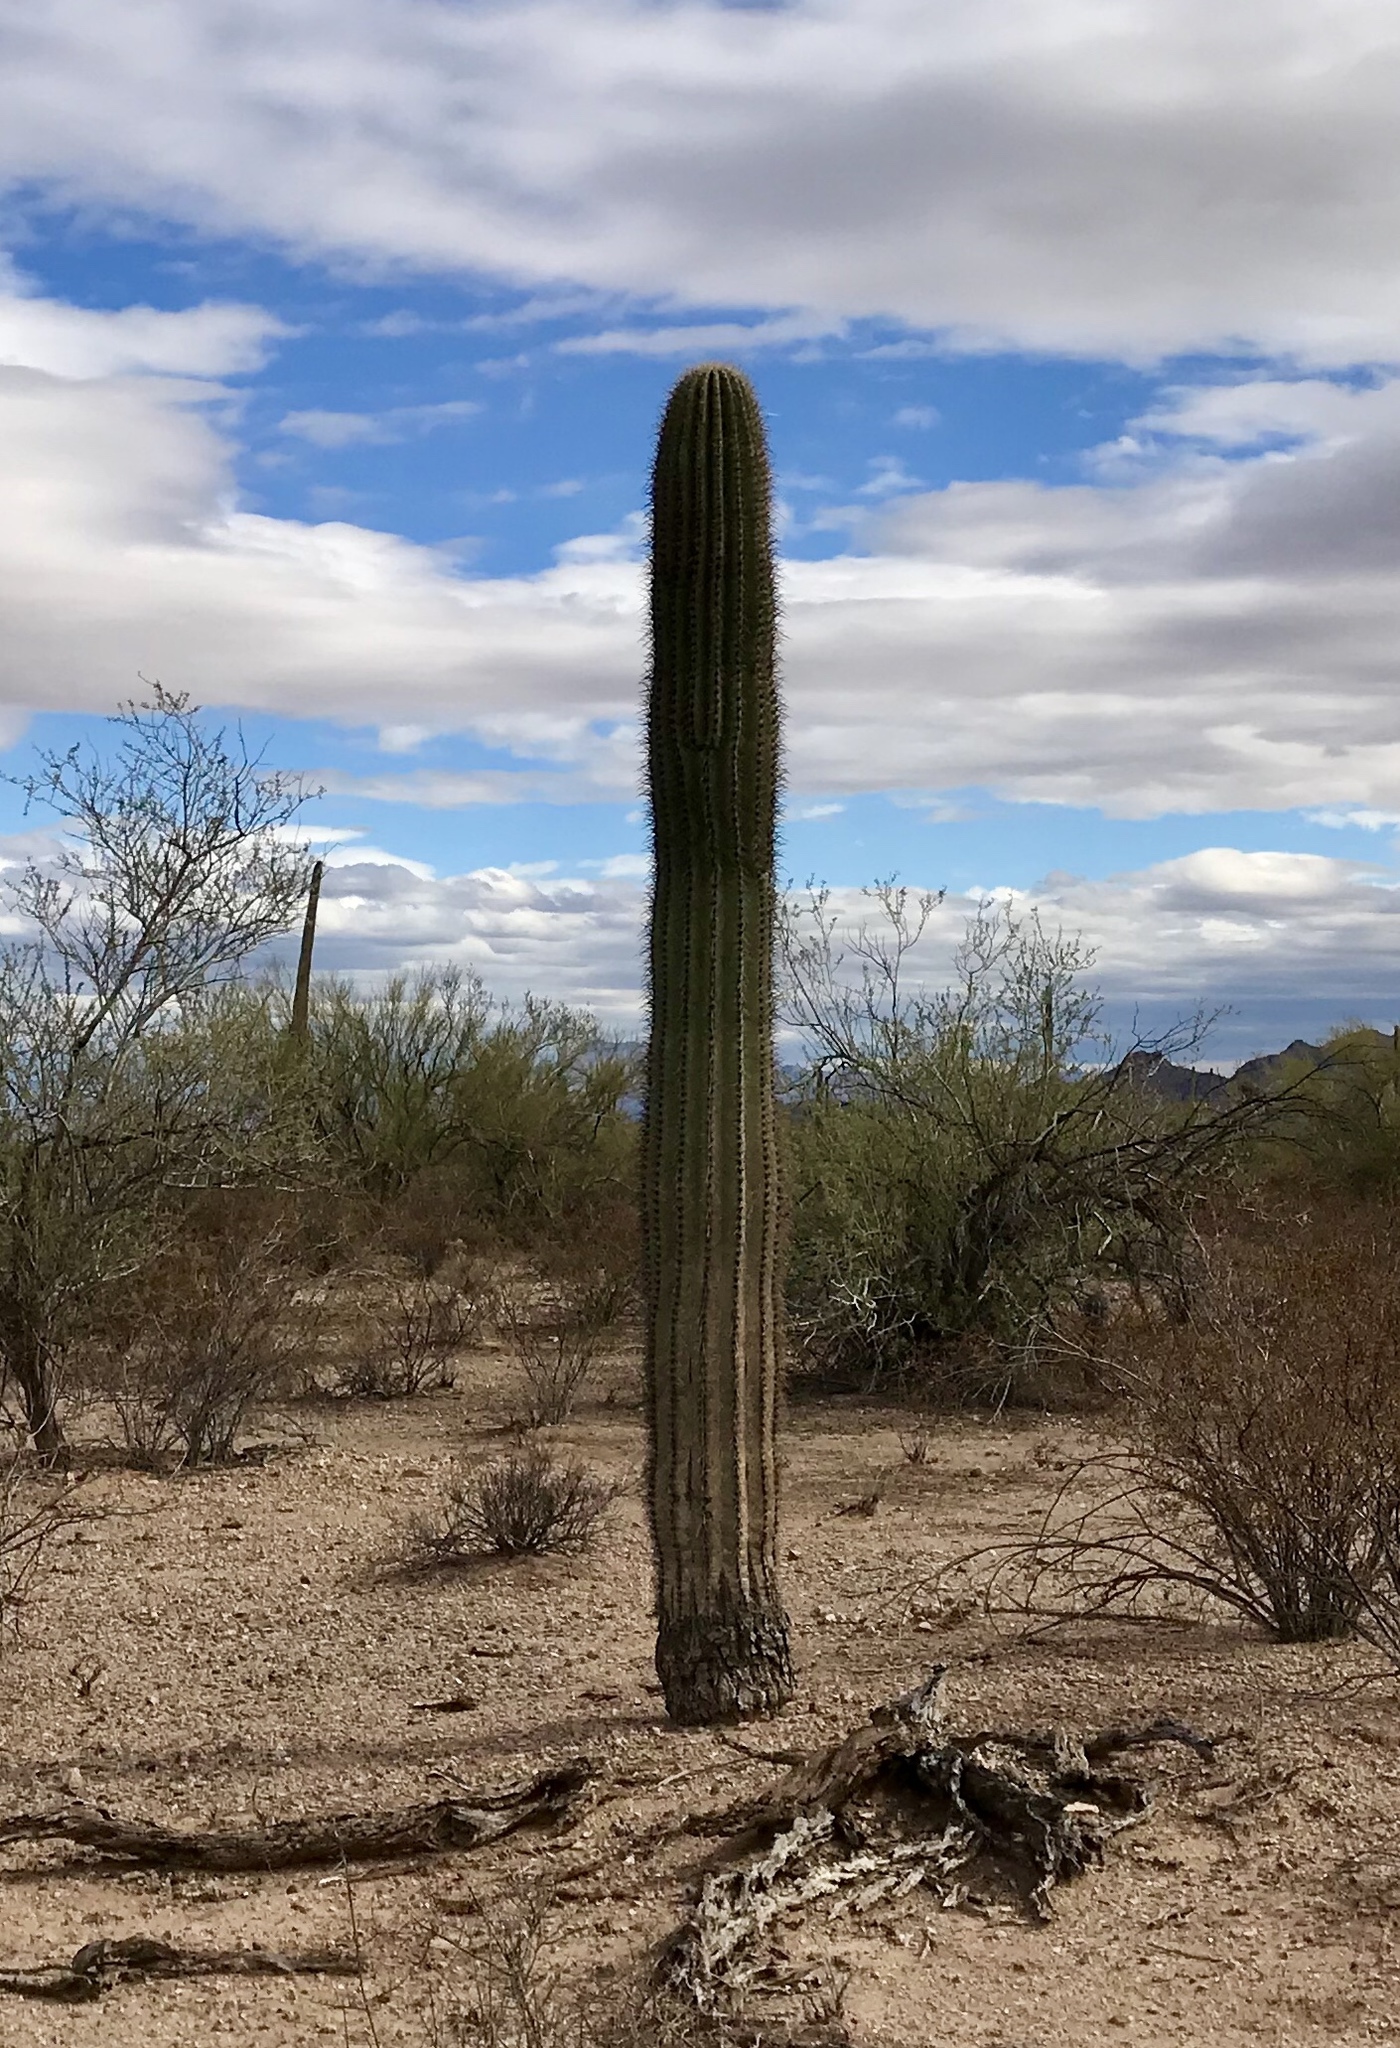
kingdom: Plantae
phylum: Tracheophyta
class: Magnoliopsida
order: Caryophyllales
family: Cactaceae
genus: Carnegiea
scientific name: Carnegiea gigantea
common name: Saguaro
